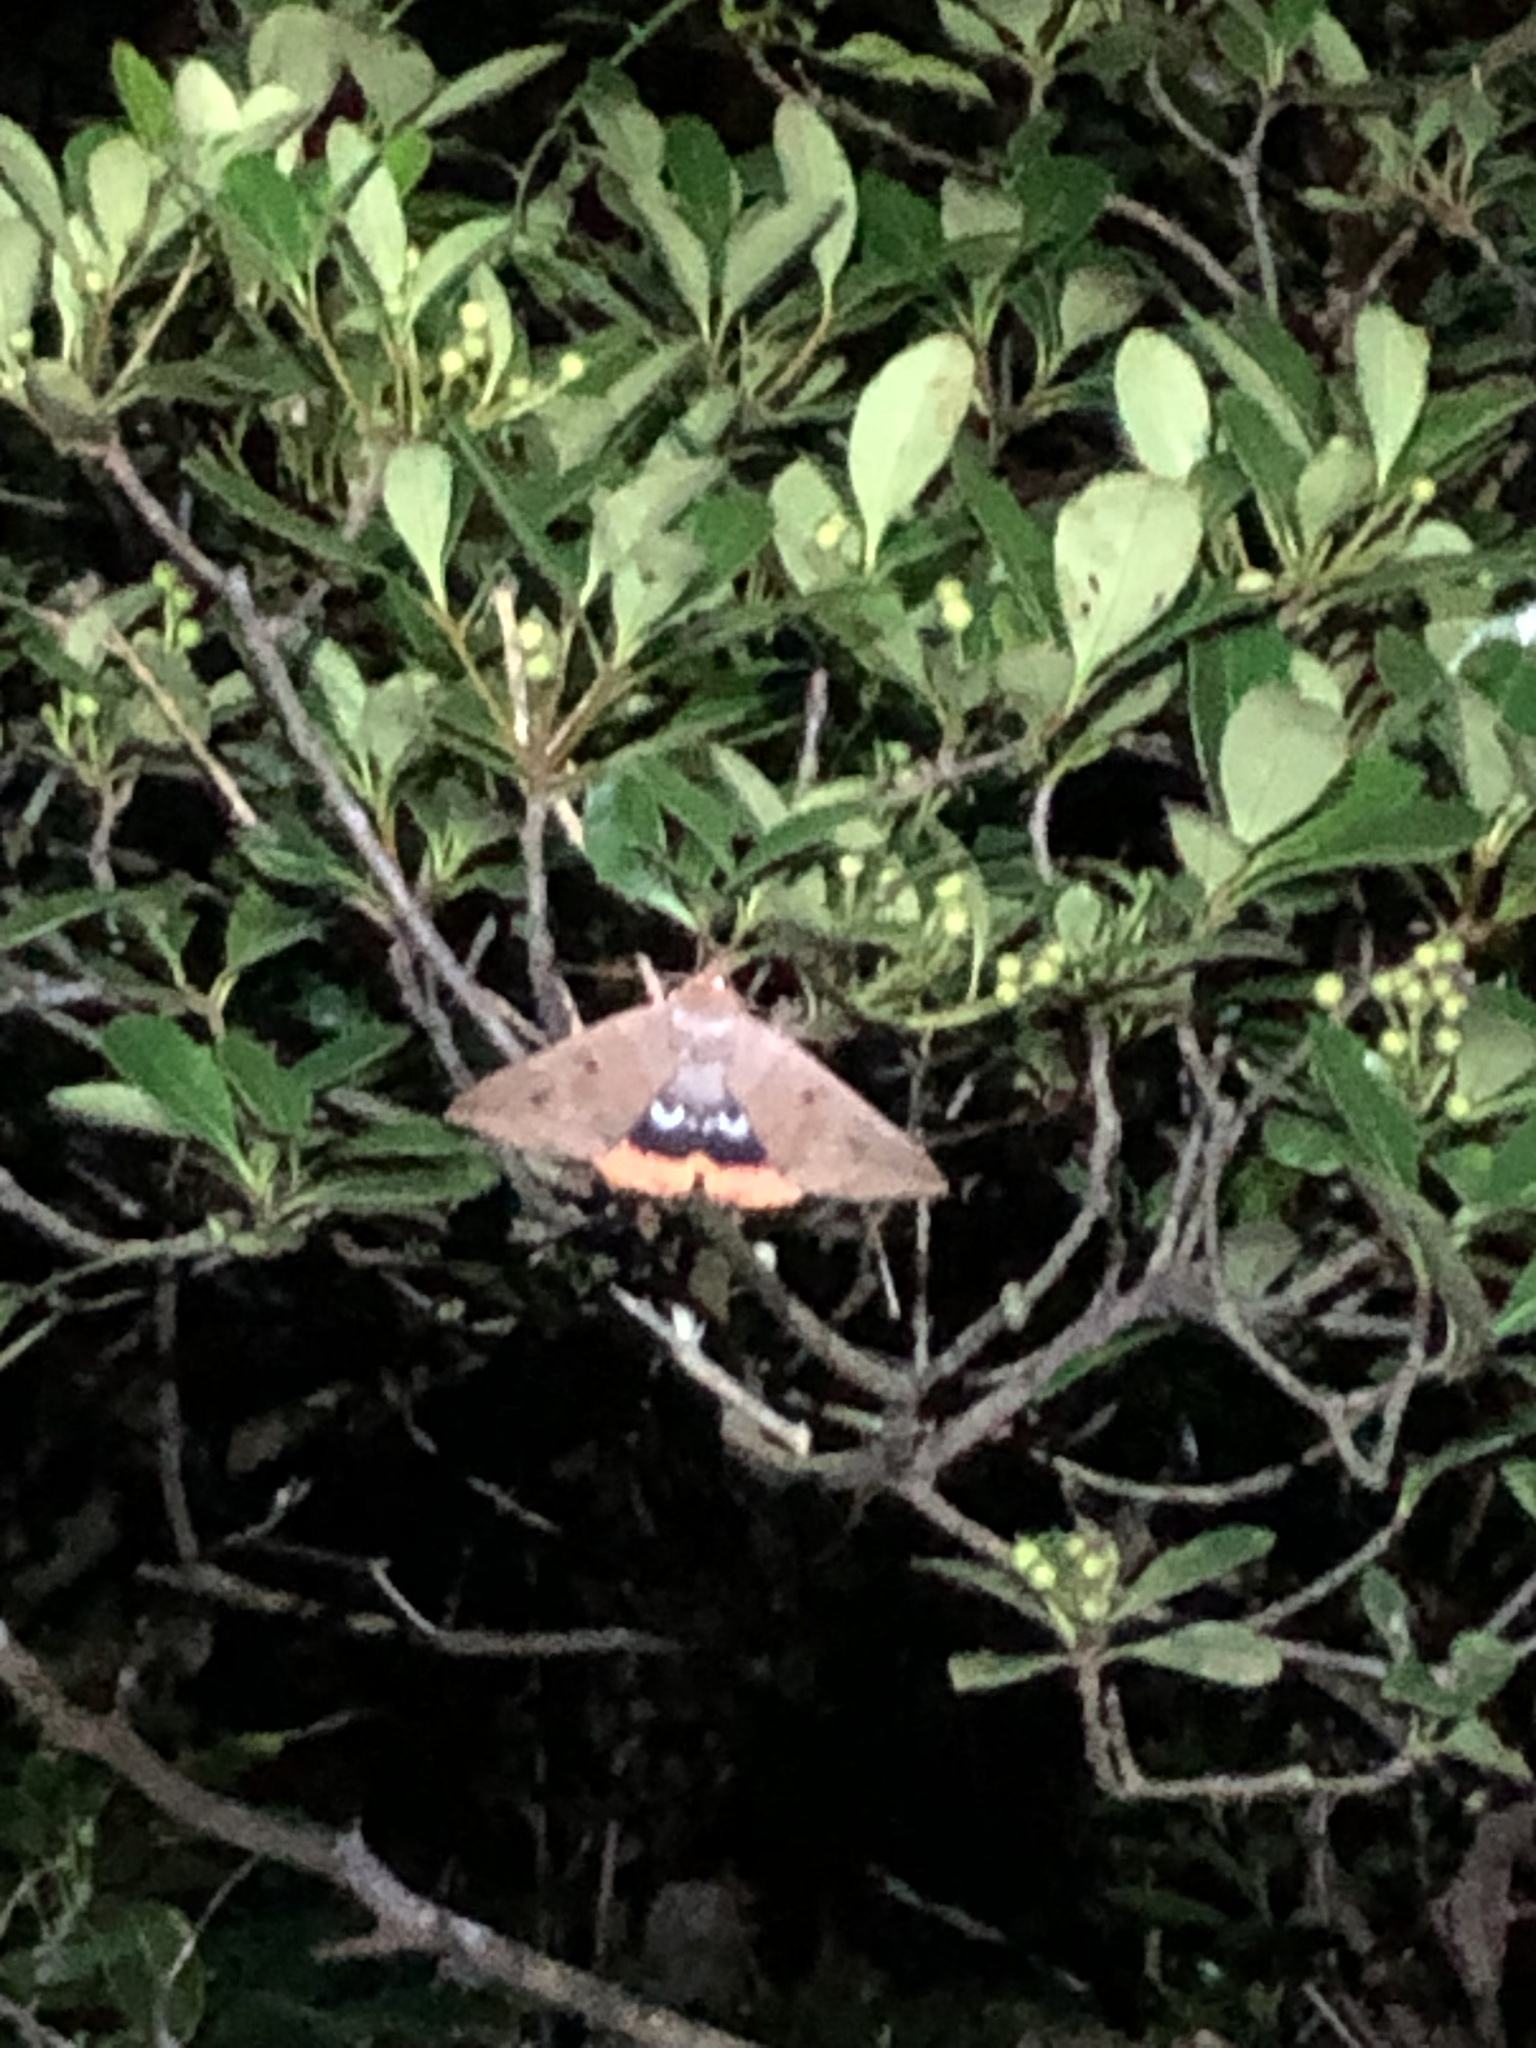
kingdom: Animalia
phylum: Arthropoda
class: Insecta
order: Lepidoptera
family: Erebidae
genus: Thyas
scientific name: Thyas juno
